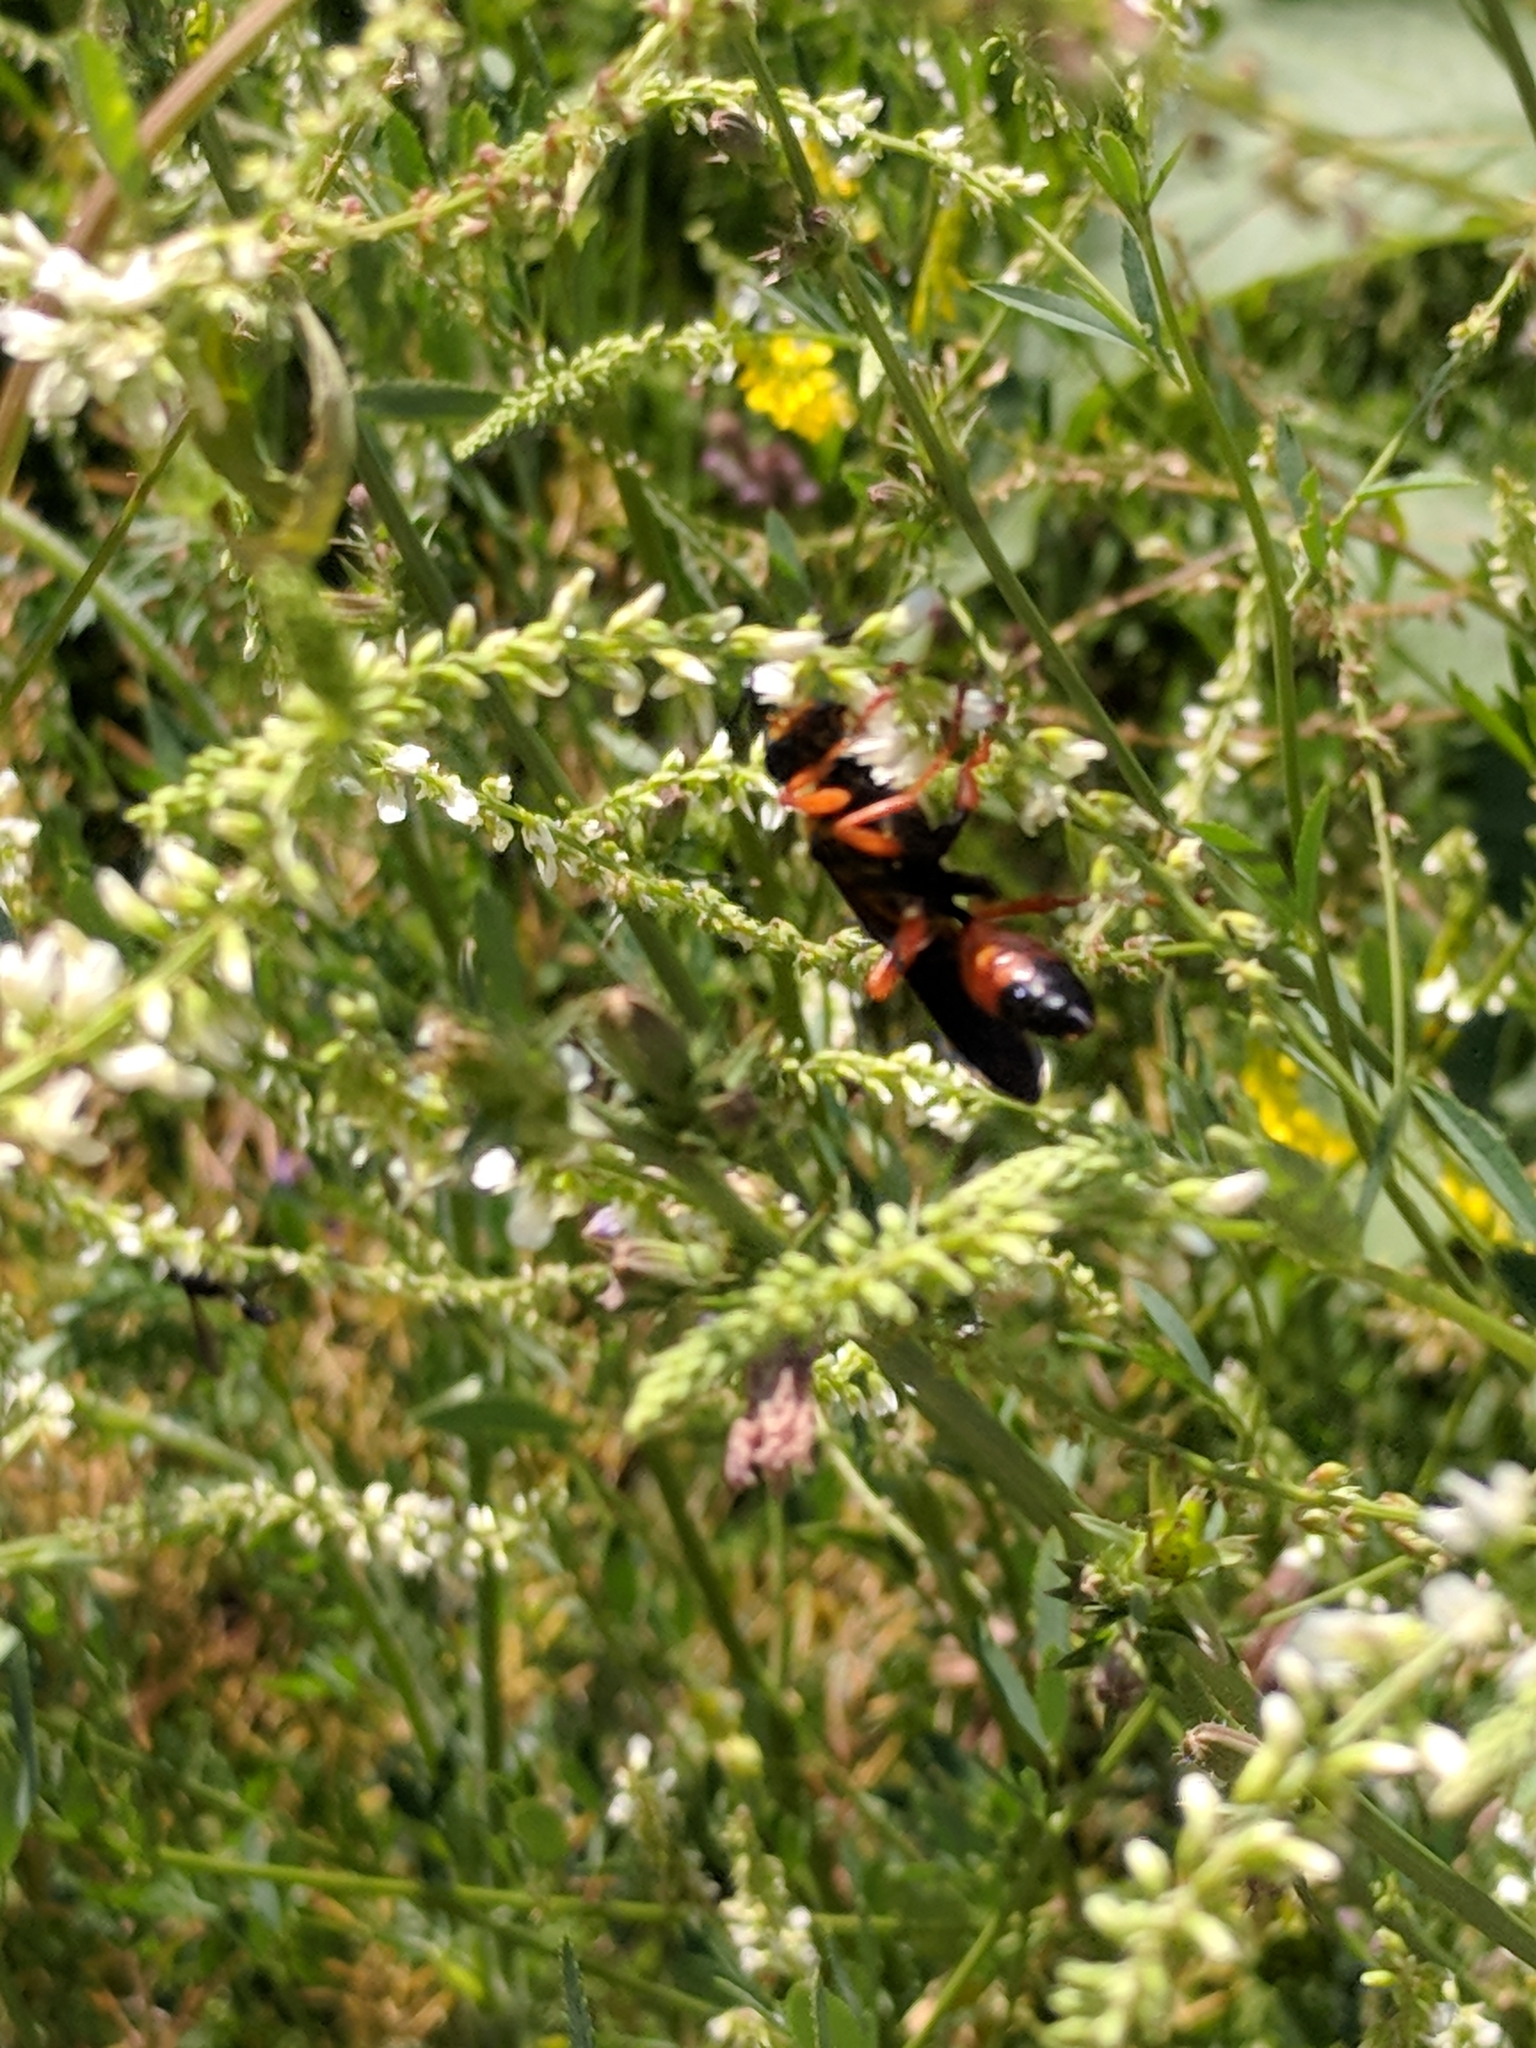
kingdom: Animalia
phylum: Arthropoda
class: Insecta
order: Hymenoptera
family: Sphecidae
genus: Sphex
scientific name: Sphex ichneumoneus
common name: Great golden digger wasp
